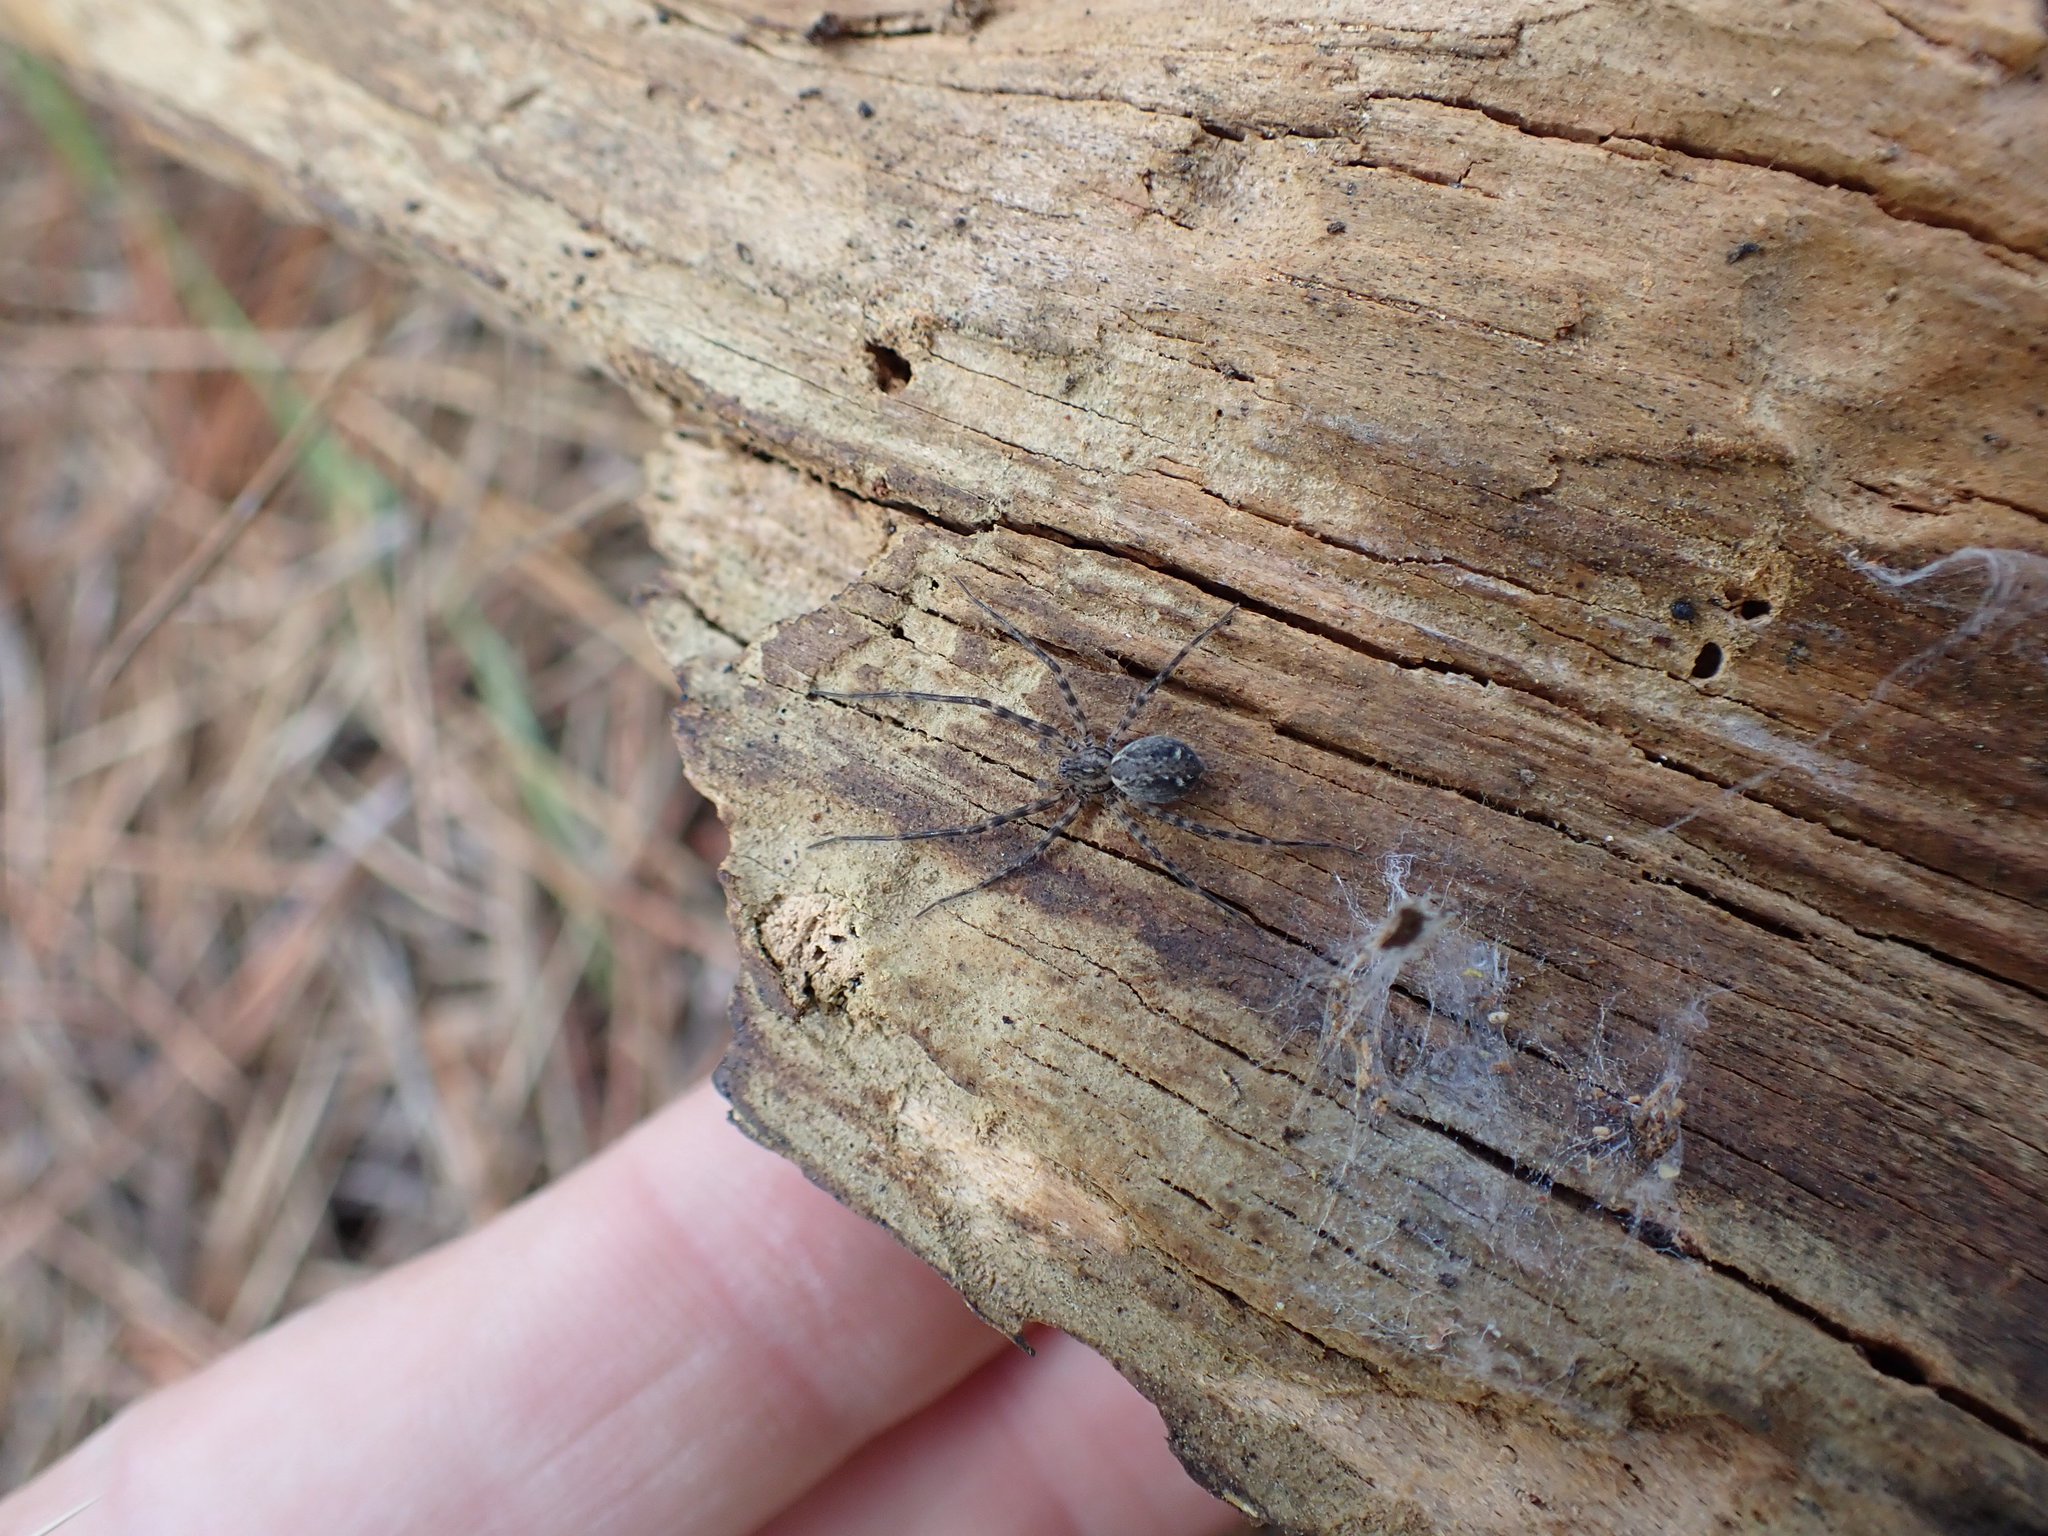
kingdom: Animalia
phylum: Arthropoda
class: Arachnida
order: Araneae
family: Stiphidiidae
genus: Stiphidion
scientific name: Stiphidion facetum
